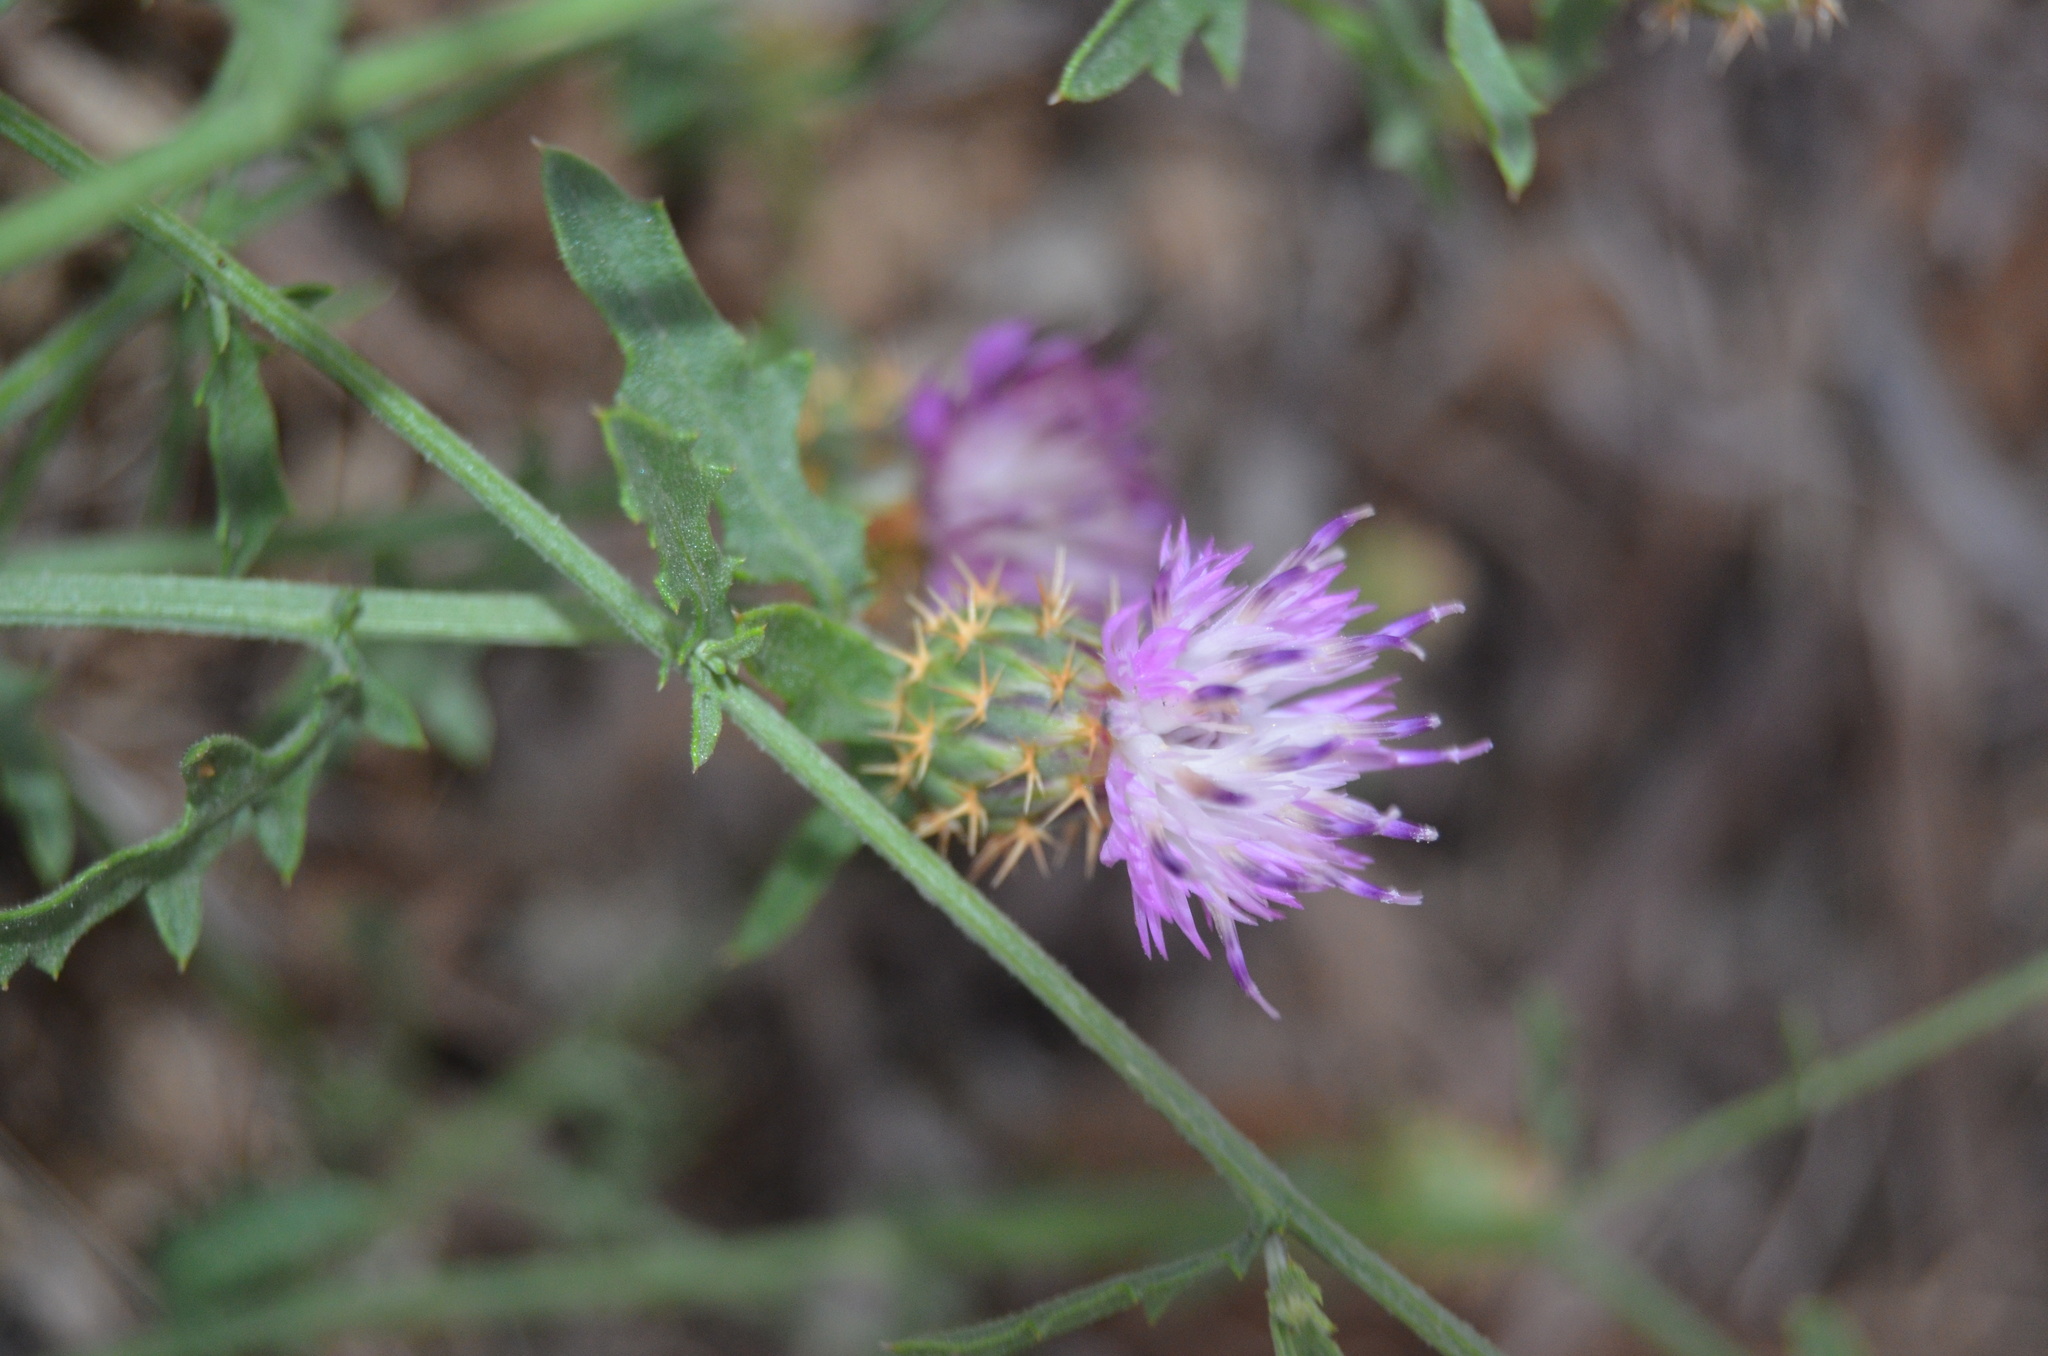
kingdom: Plantae
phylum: Tracheophyta
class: Magnoliopsida
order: Asterales
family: Asteraceae
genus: Centaurea
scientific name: Centaurea aspera
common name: Rough star-thistle
